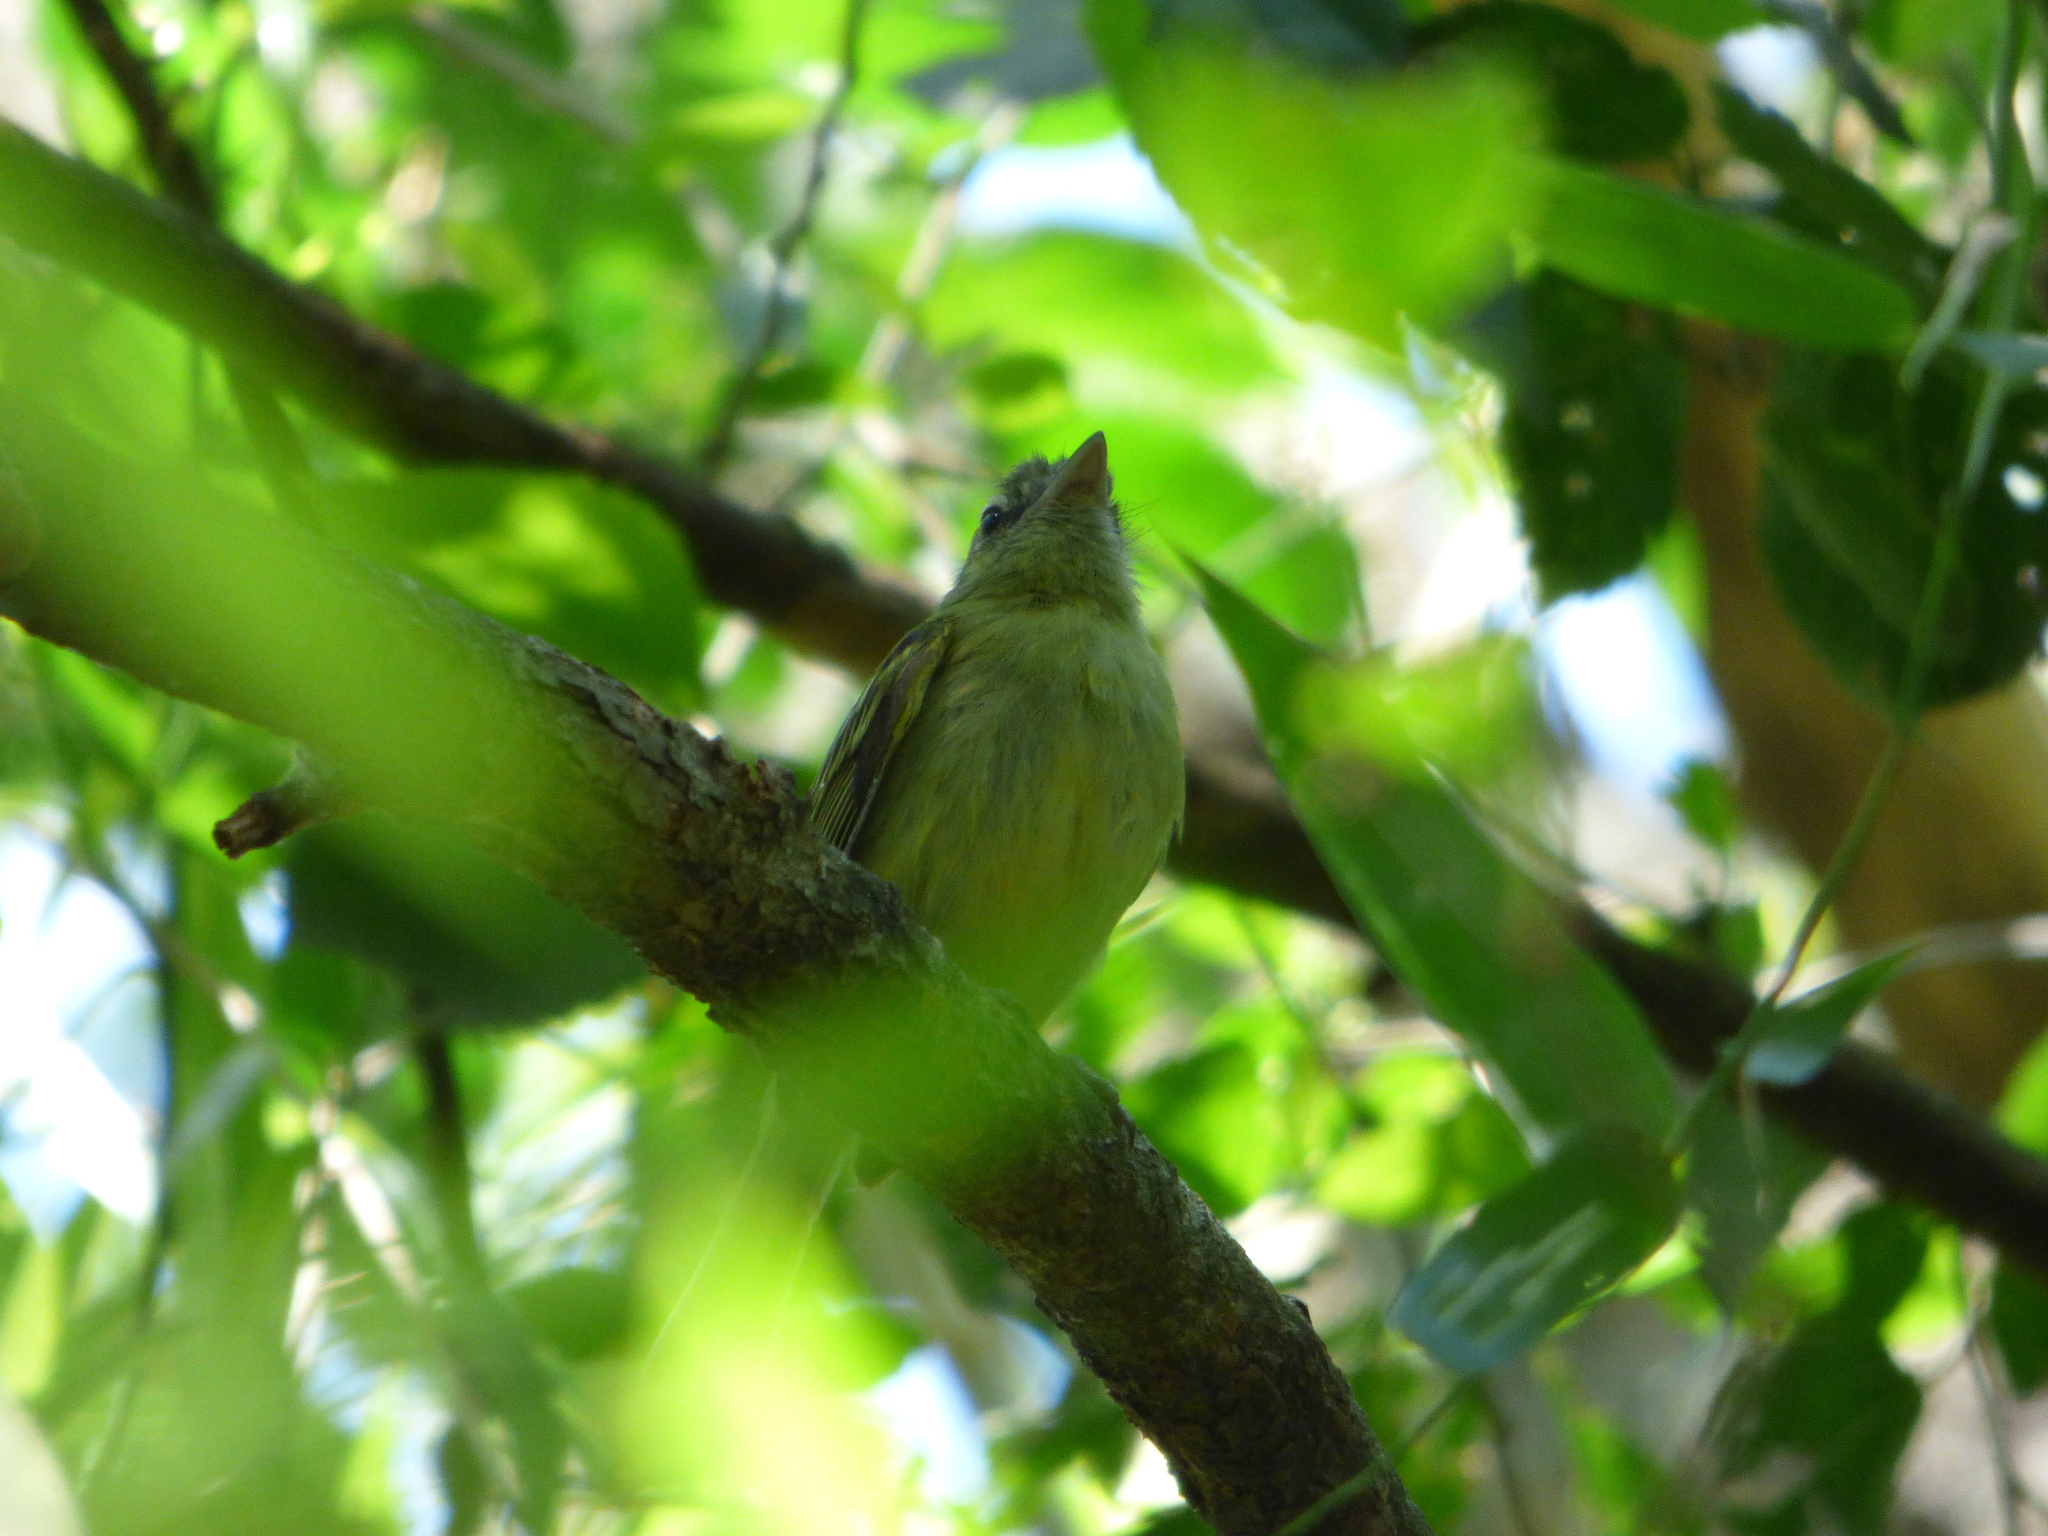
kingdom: Animalia
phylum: Chordata
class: Aves
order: Passeriformes
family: Tyrannidae
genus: Tolmomyias
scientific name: Tolmomyias sulphurescens
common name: Yellow-olive flycatcher
